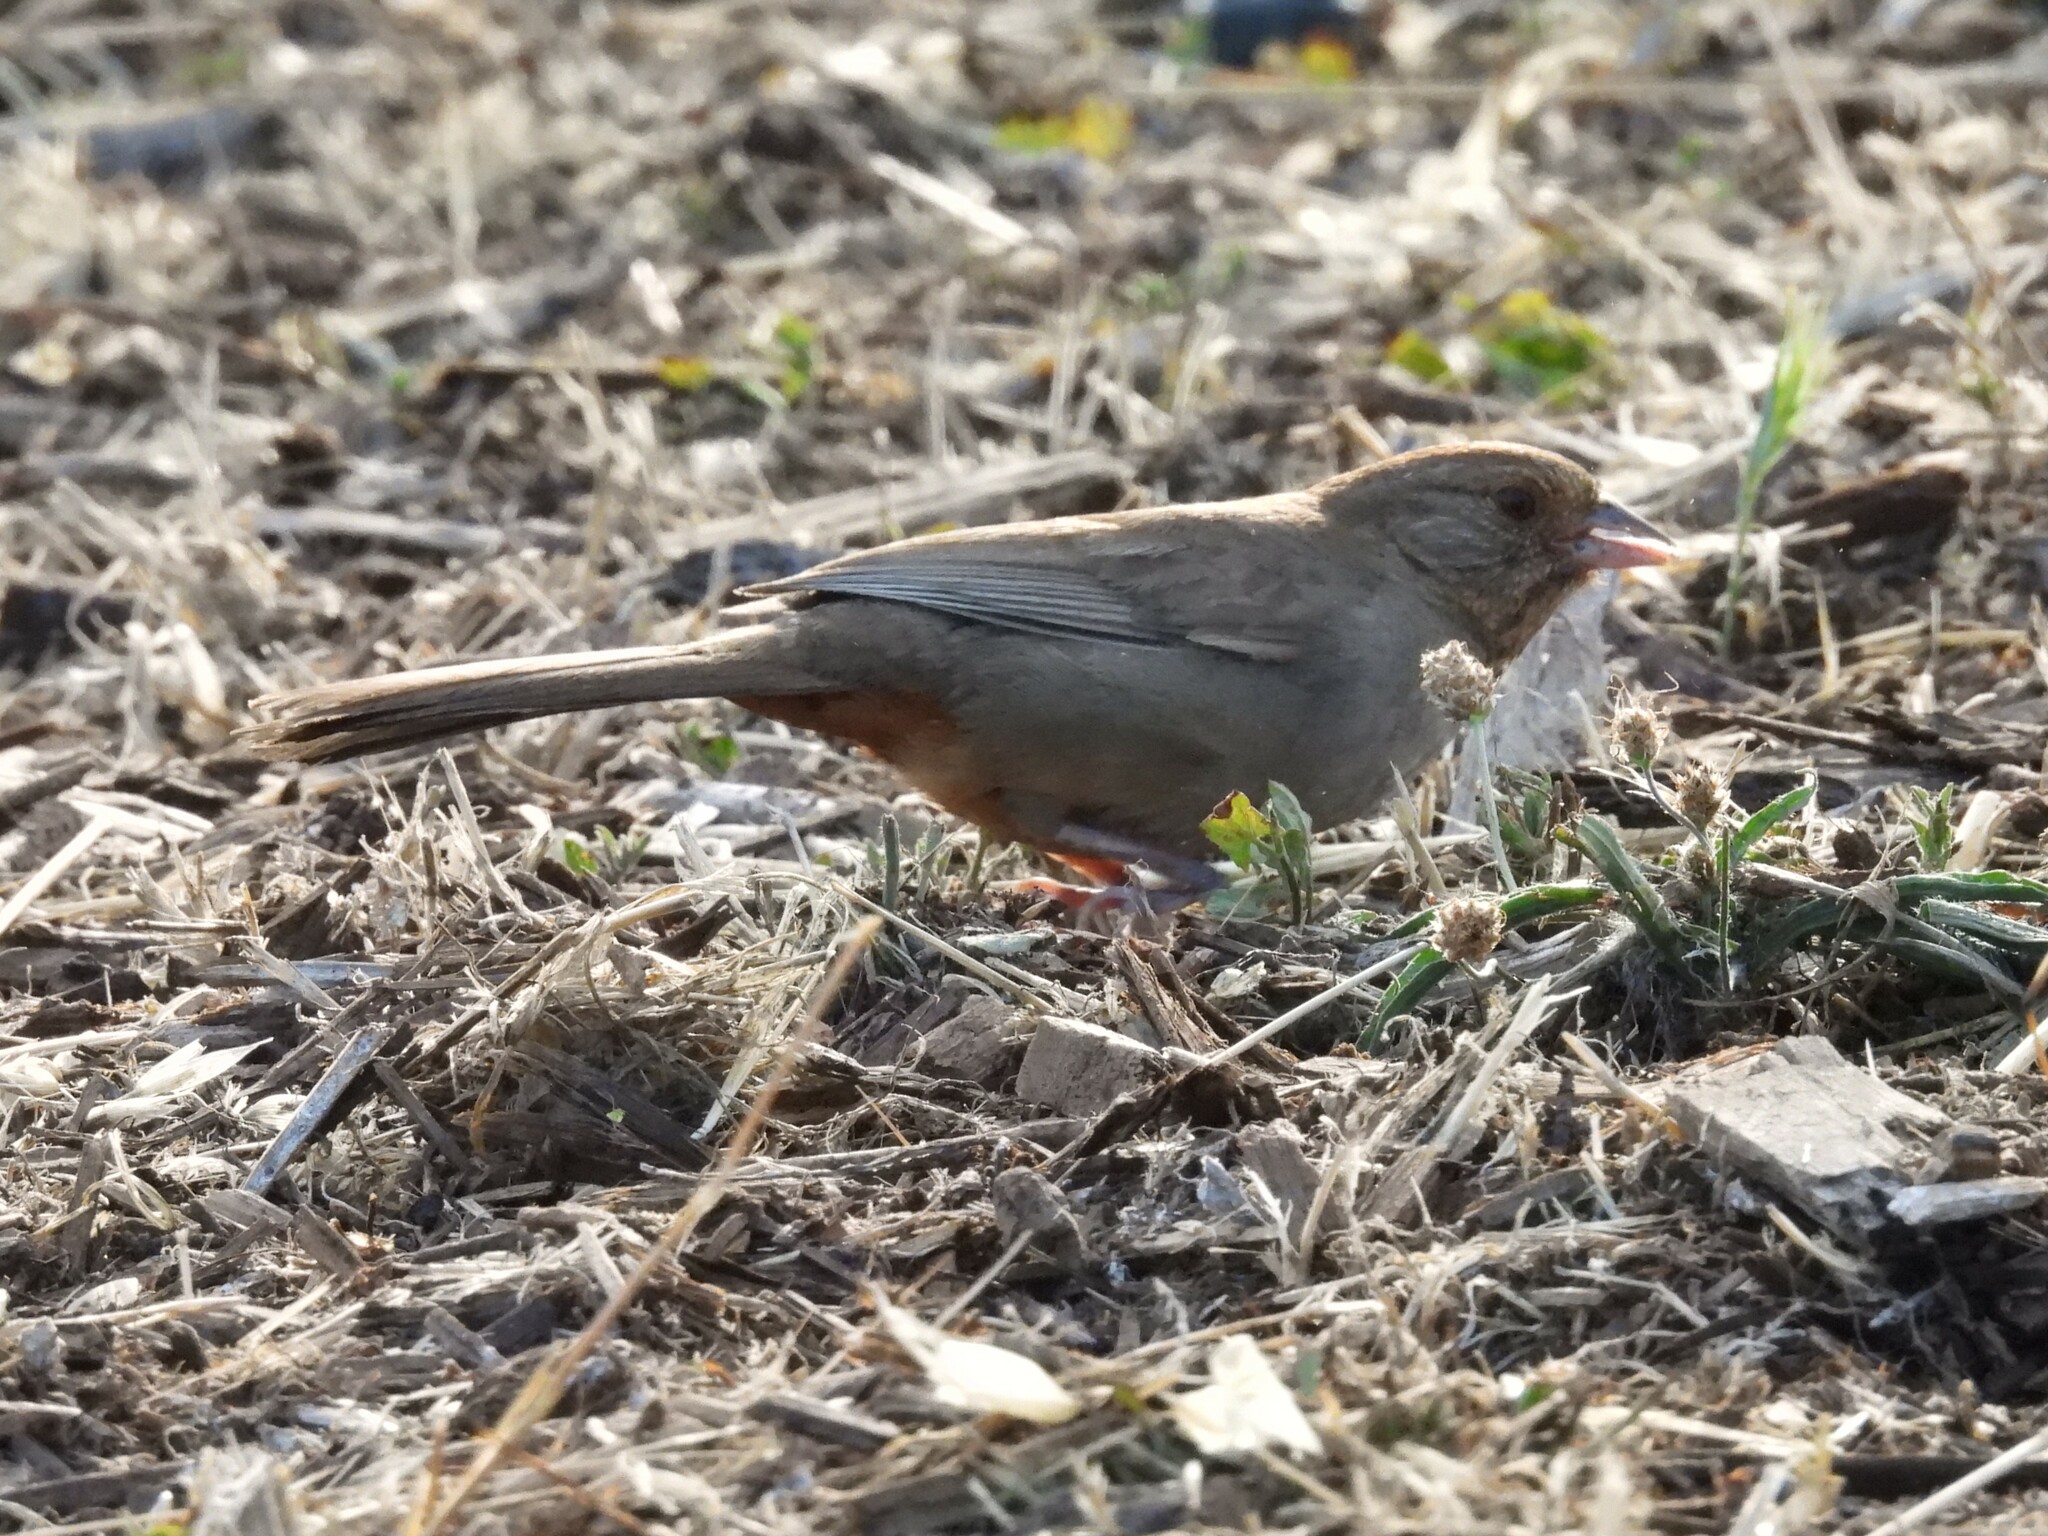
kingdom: Animalia
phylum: Chordata
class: Aves
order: Passeriformes
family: Passerellidae
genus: Melozone
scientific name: Melozone crissalis
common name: California towhee
